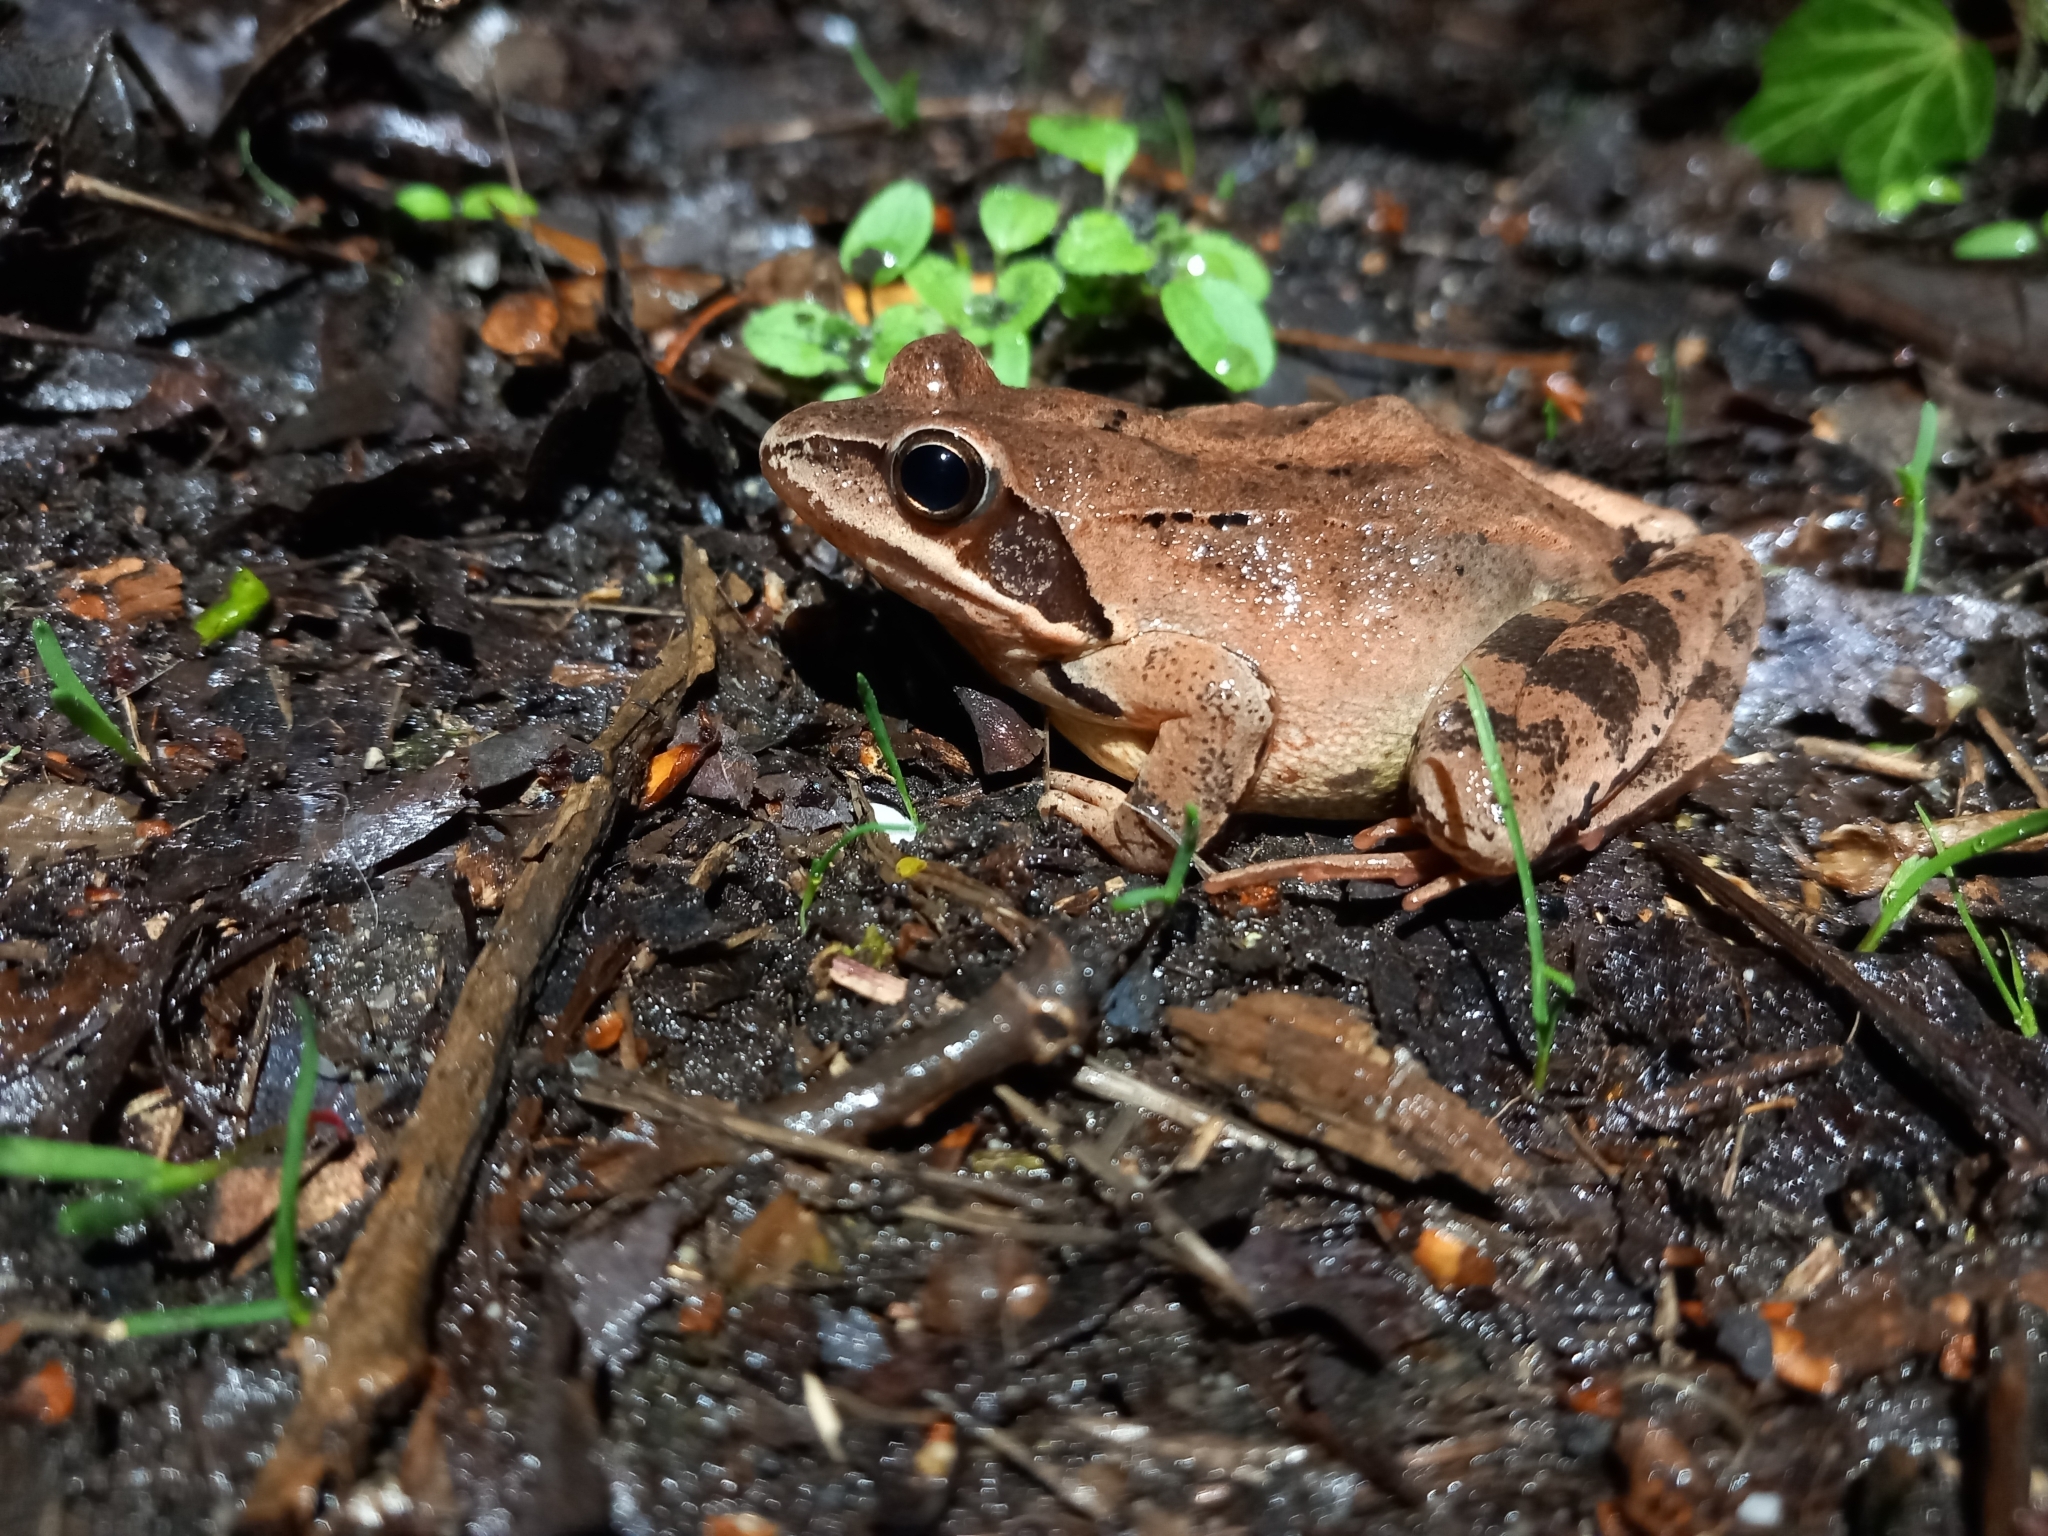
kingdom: Animalia
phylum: Chordata
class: Amphibia
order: Anura
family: Ranidae
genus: Rana
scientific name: Rana dalmatina
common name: Agile frog
